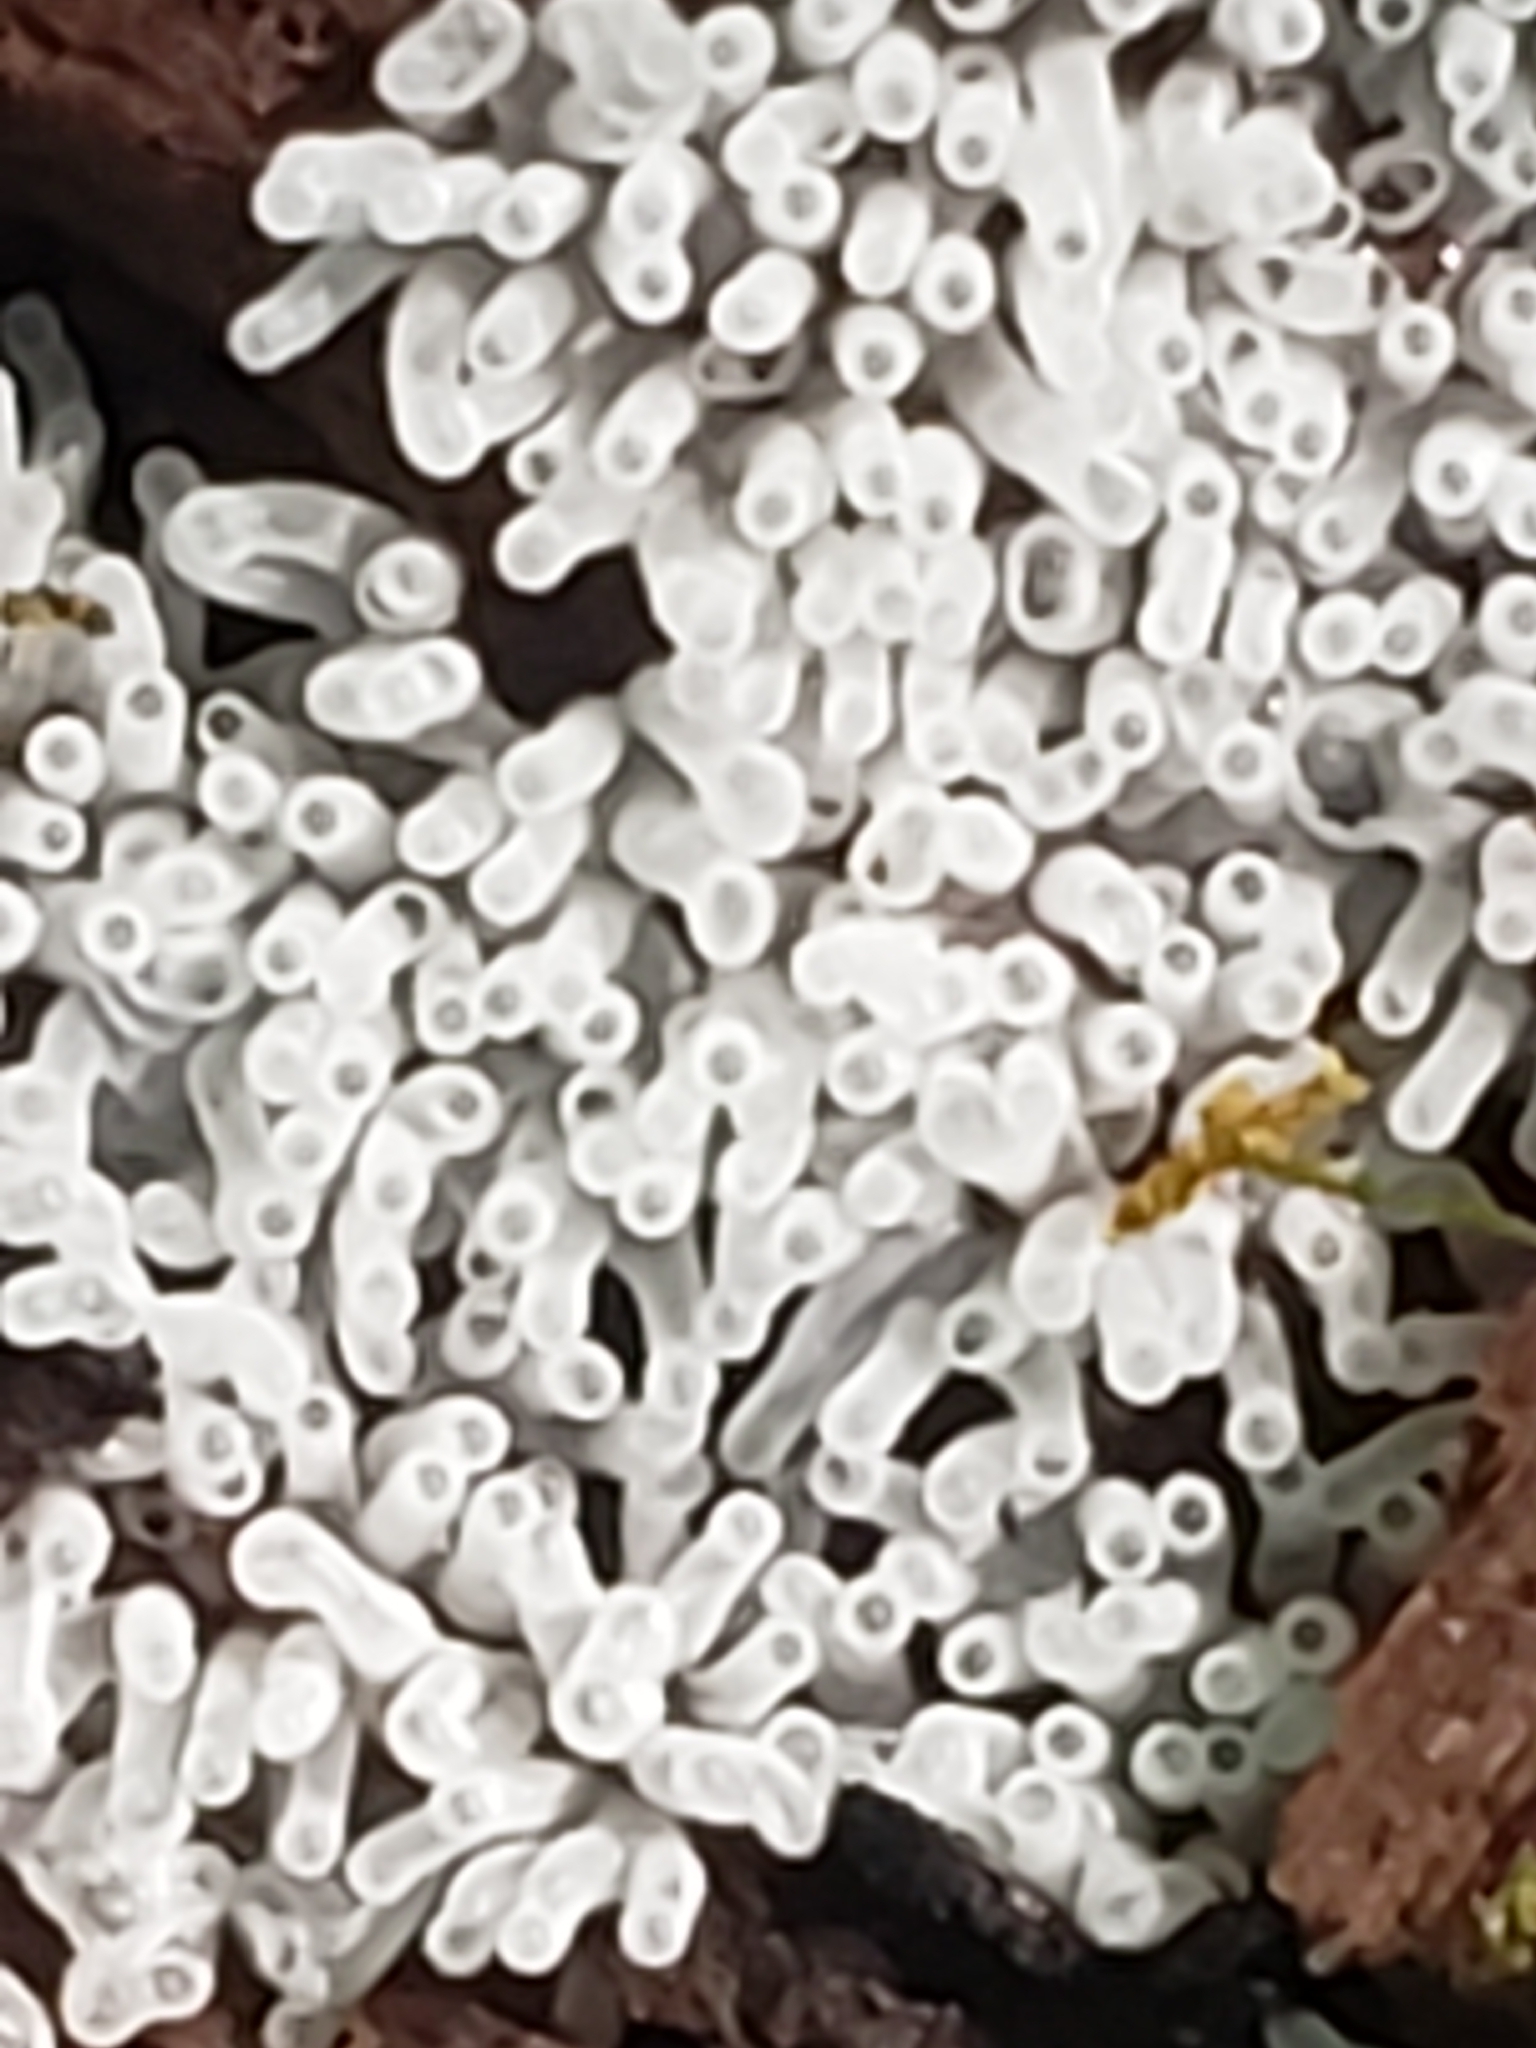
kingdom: Protozoa
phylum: Mycetozoa
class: Protosteliomycetes
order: Ceratiomyxales
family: Ceratiomyxaceae
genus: Ceratiomyxa
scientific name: Ceratiomyxa fruticulosa
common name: Honeycomb coral slime mold
